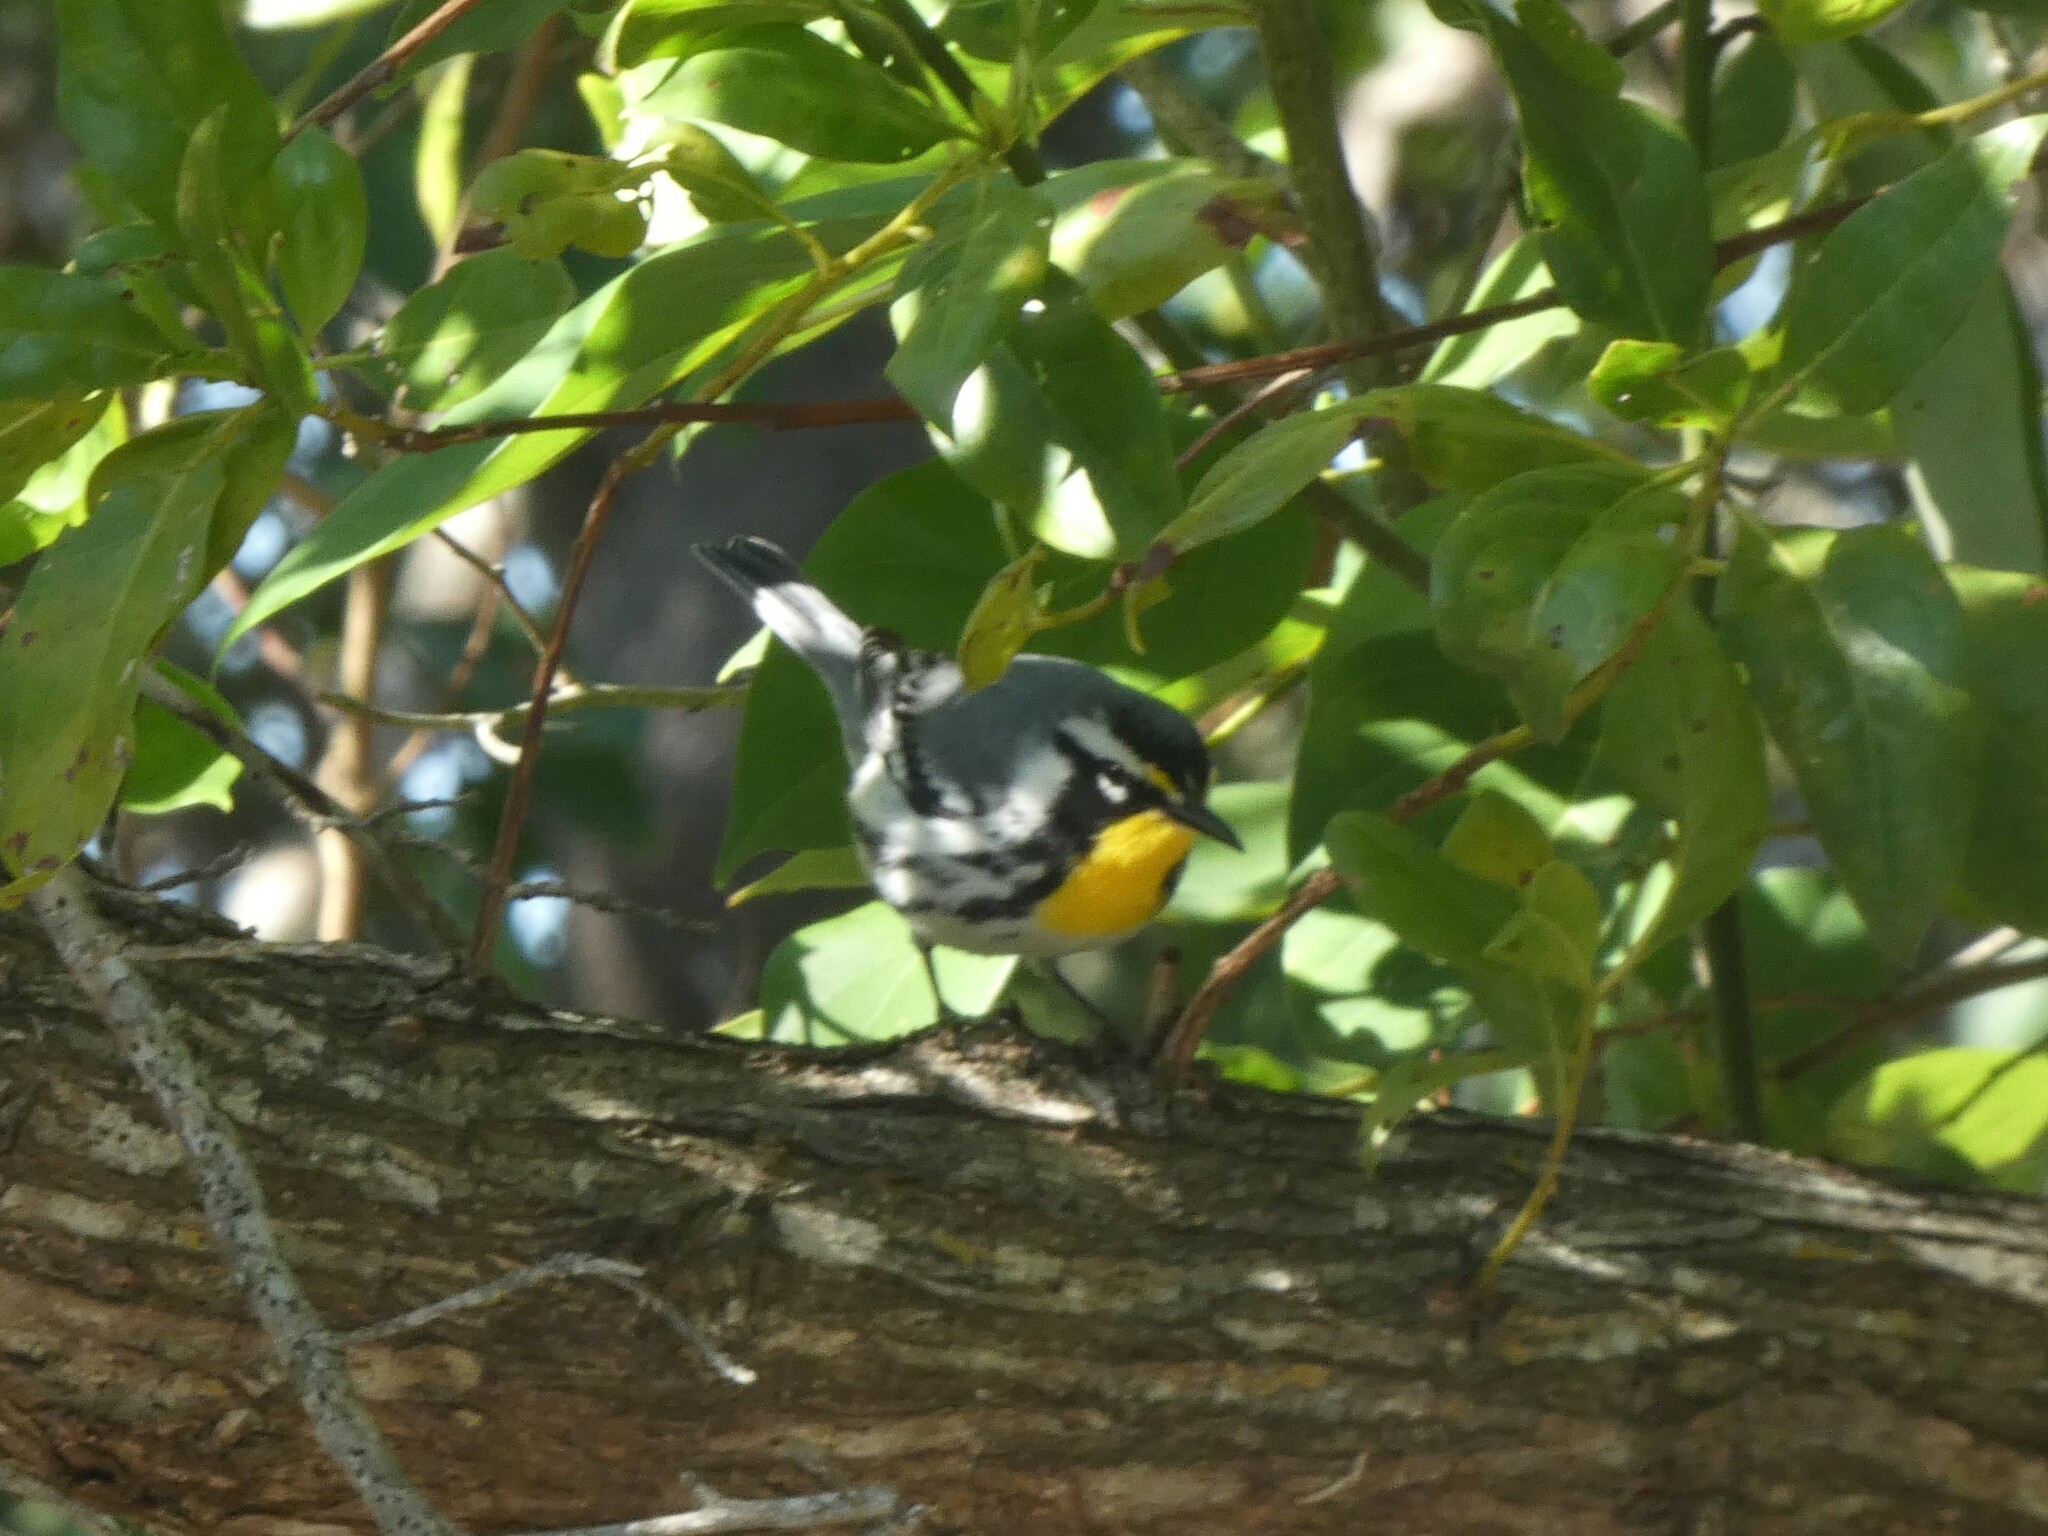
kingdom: Animalia
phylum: Chordata
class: Aves
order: Passeriformes
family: Parulidae
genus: Setophaga
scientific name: Setophaga dominica
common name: Yellow-throated warbler
